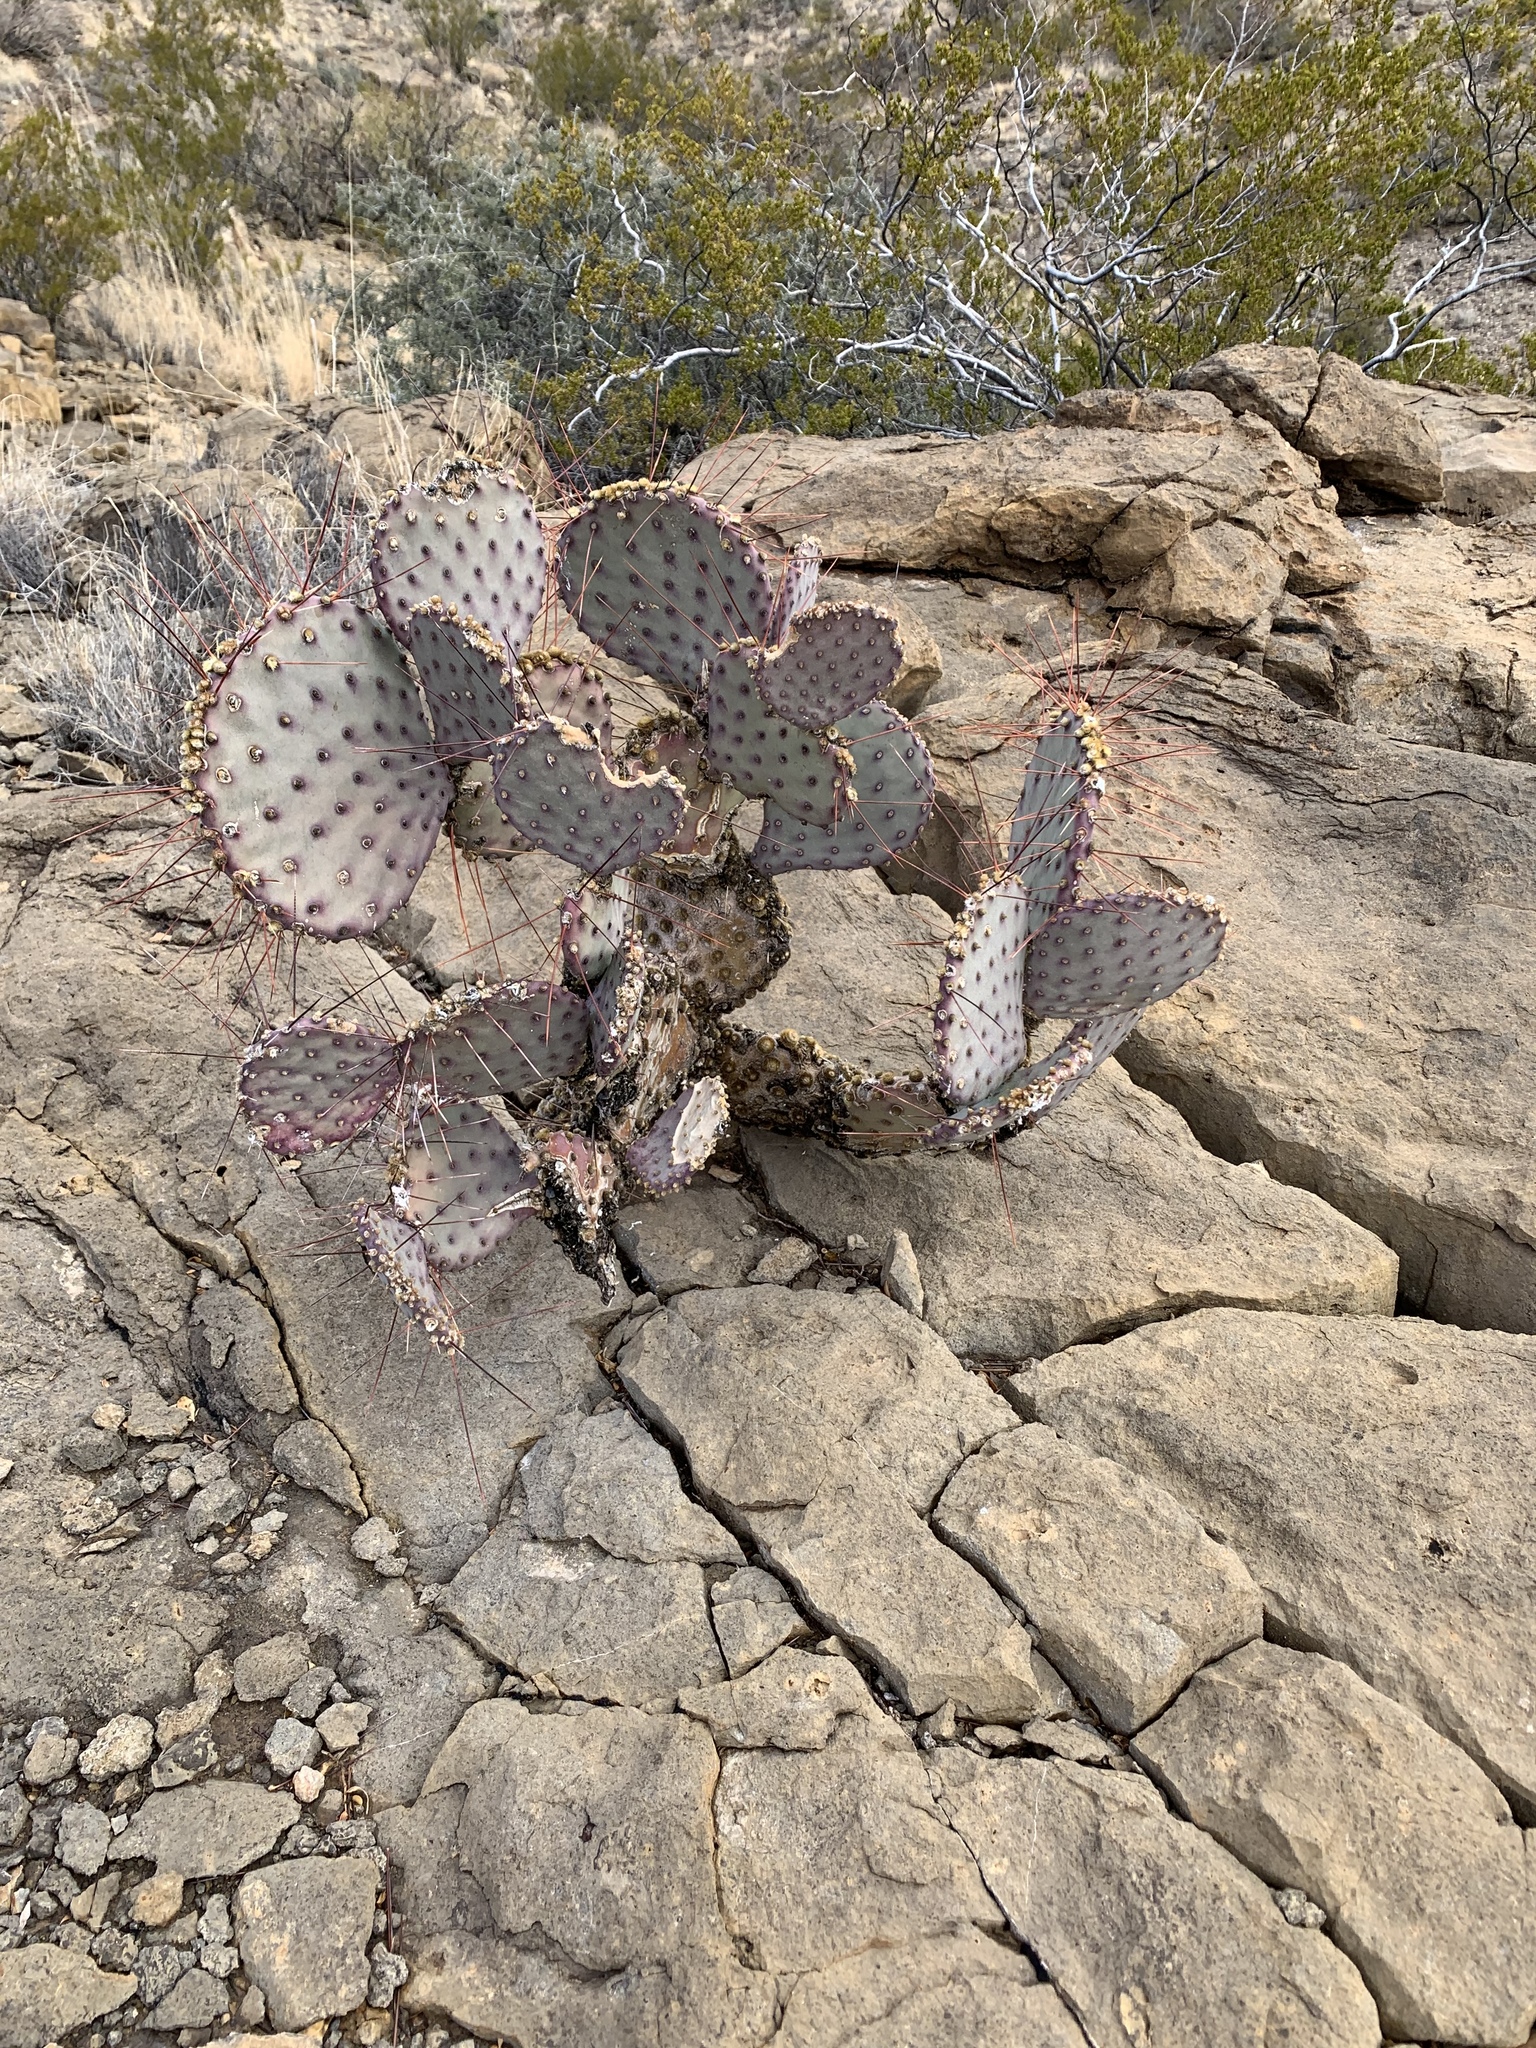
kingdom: Plantae
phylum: Tracheophyta
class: Magnoliopsida
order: Caryophyllales
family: Cactaceae
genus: Opuntia
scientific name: Opuntia macrocentra
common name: Purple prickly-pear
